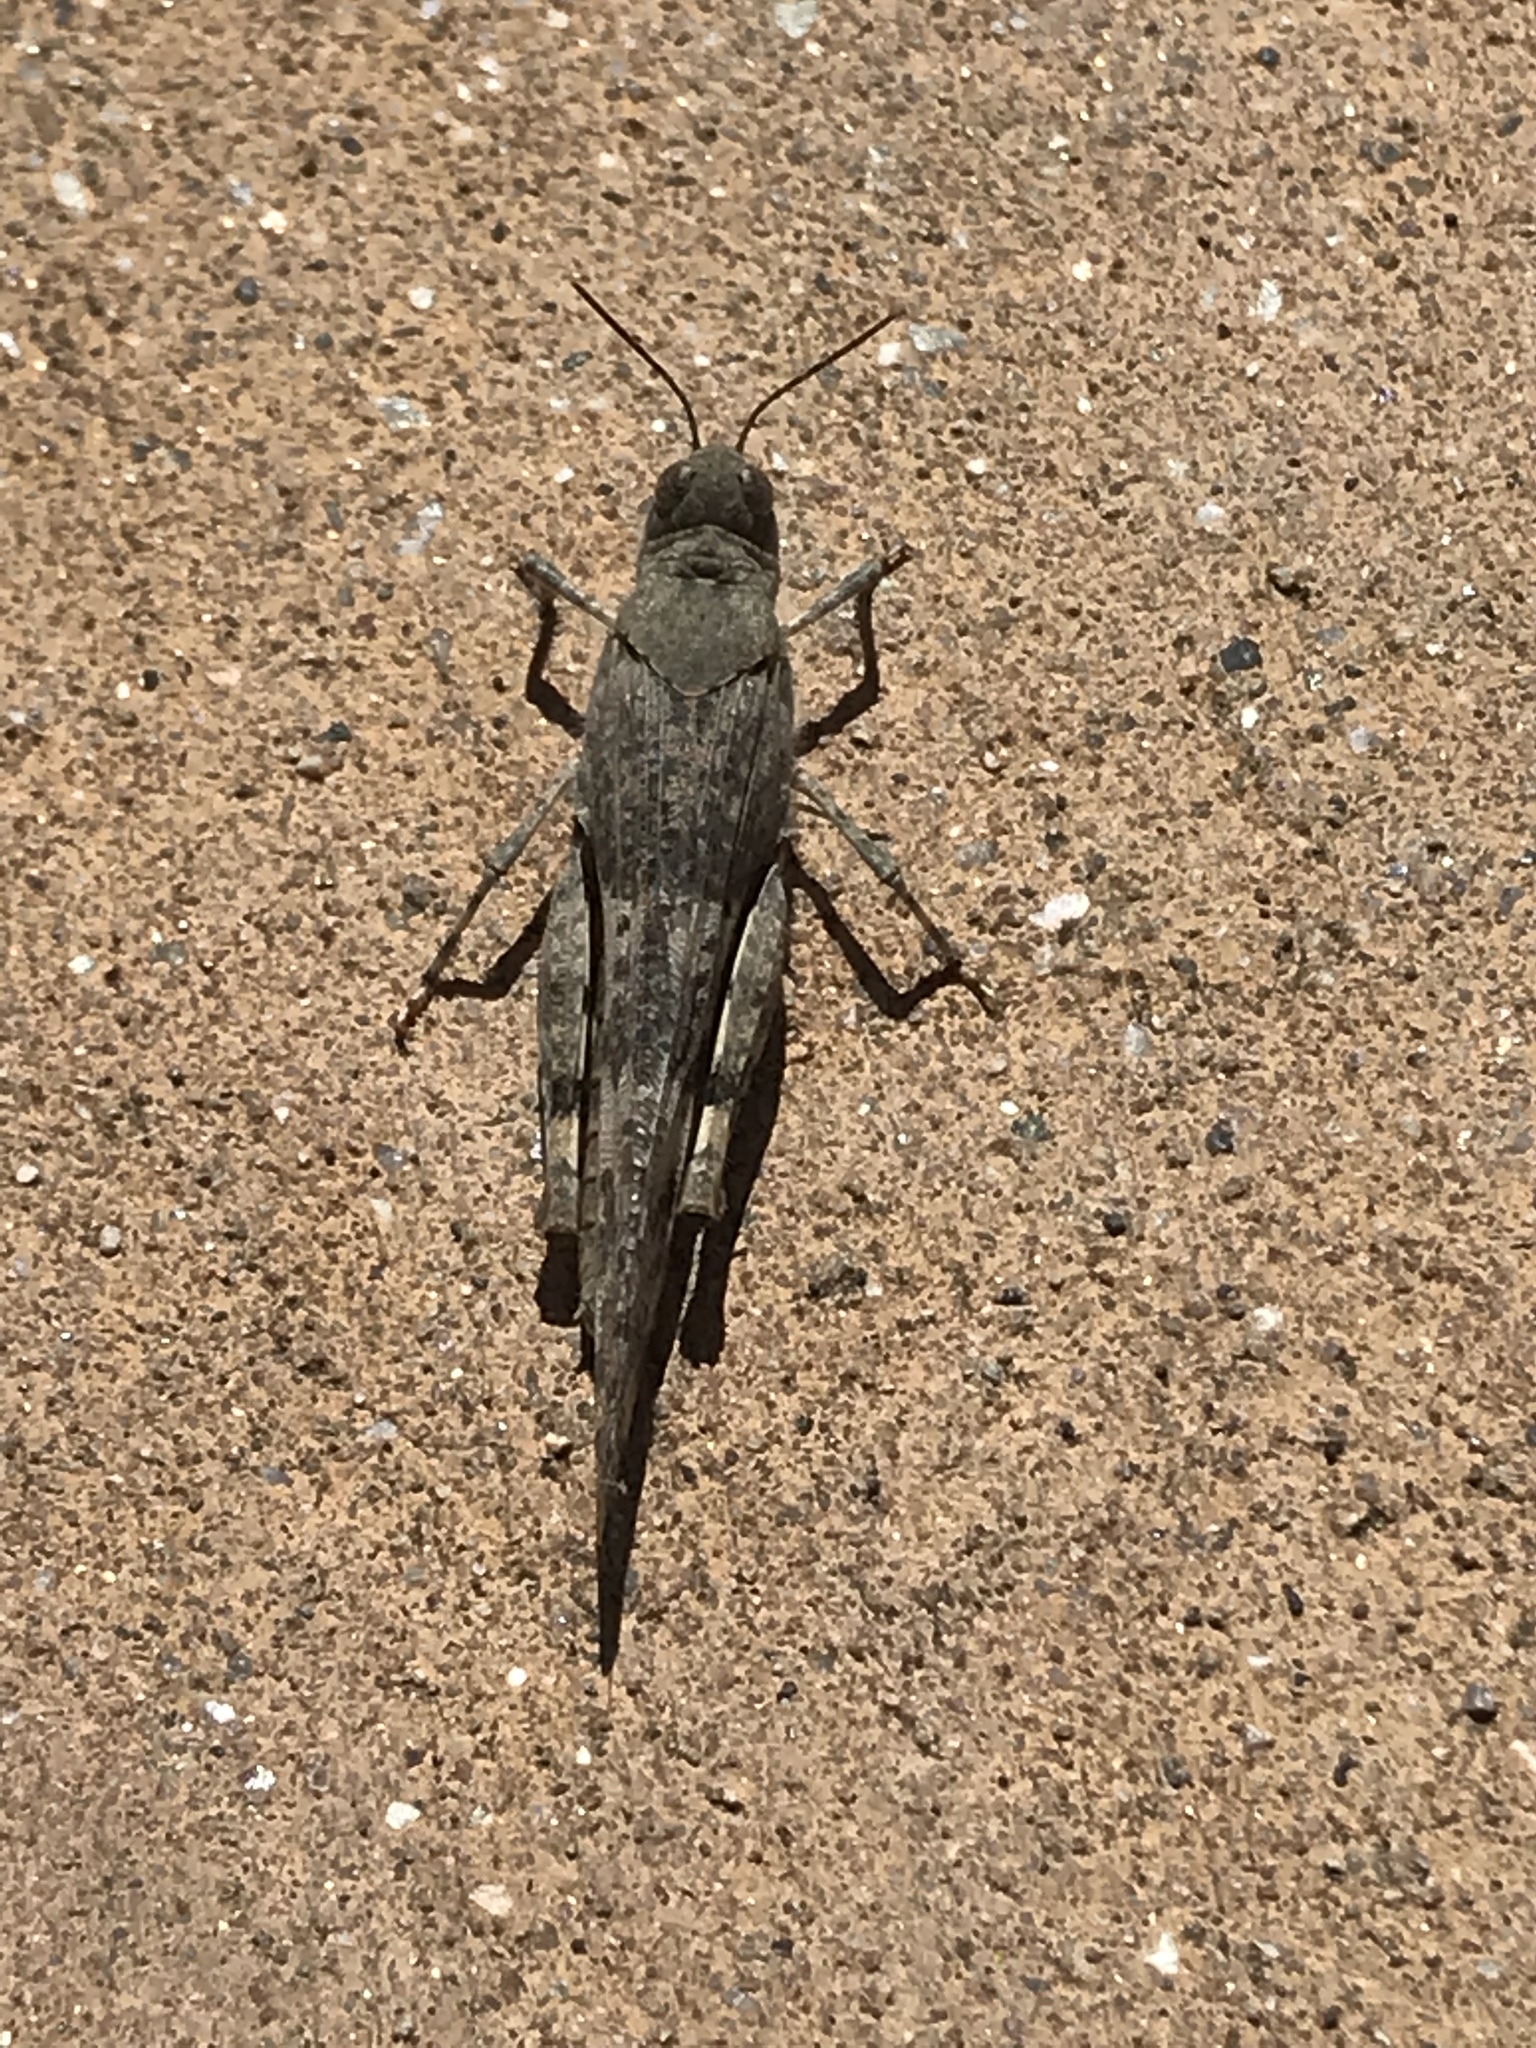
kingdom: Animalia
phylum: Arthropoda
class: Insecta
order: Orthoptera
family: Acrididae
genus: Trimerotropis
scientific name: Trimerotropis pallidipennis
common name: Pallid-winged grasshopper
